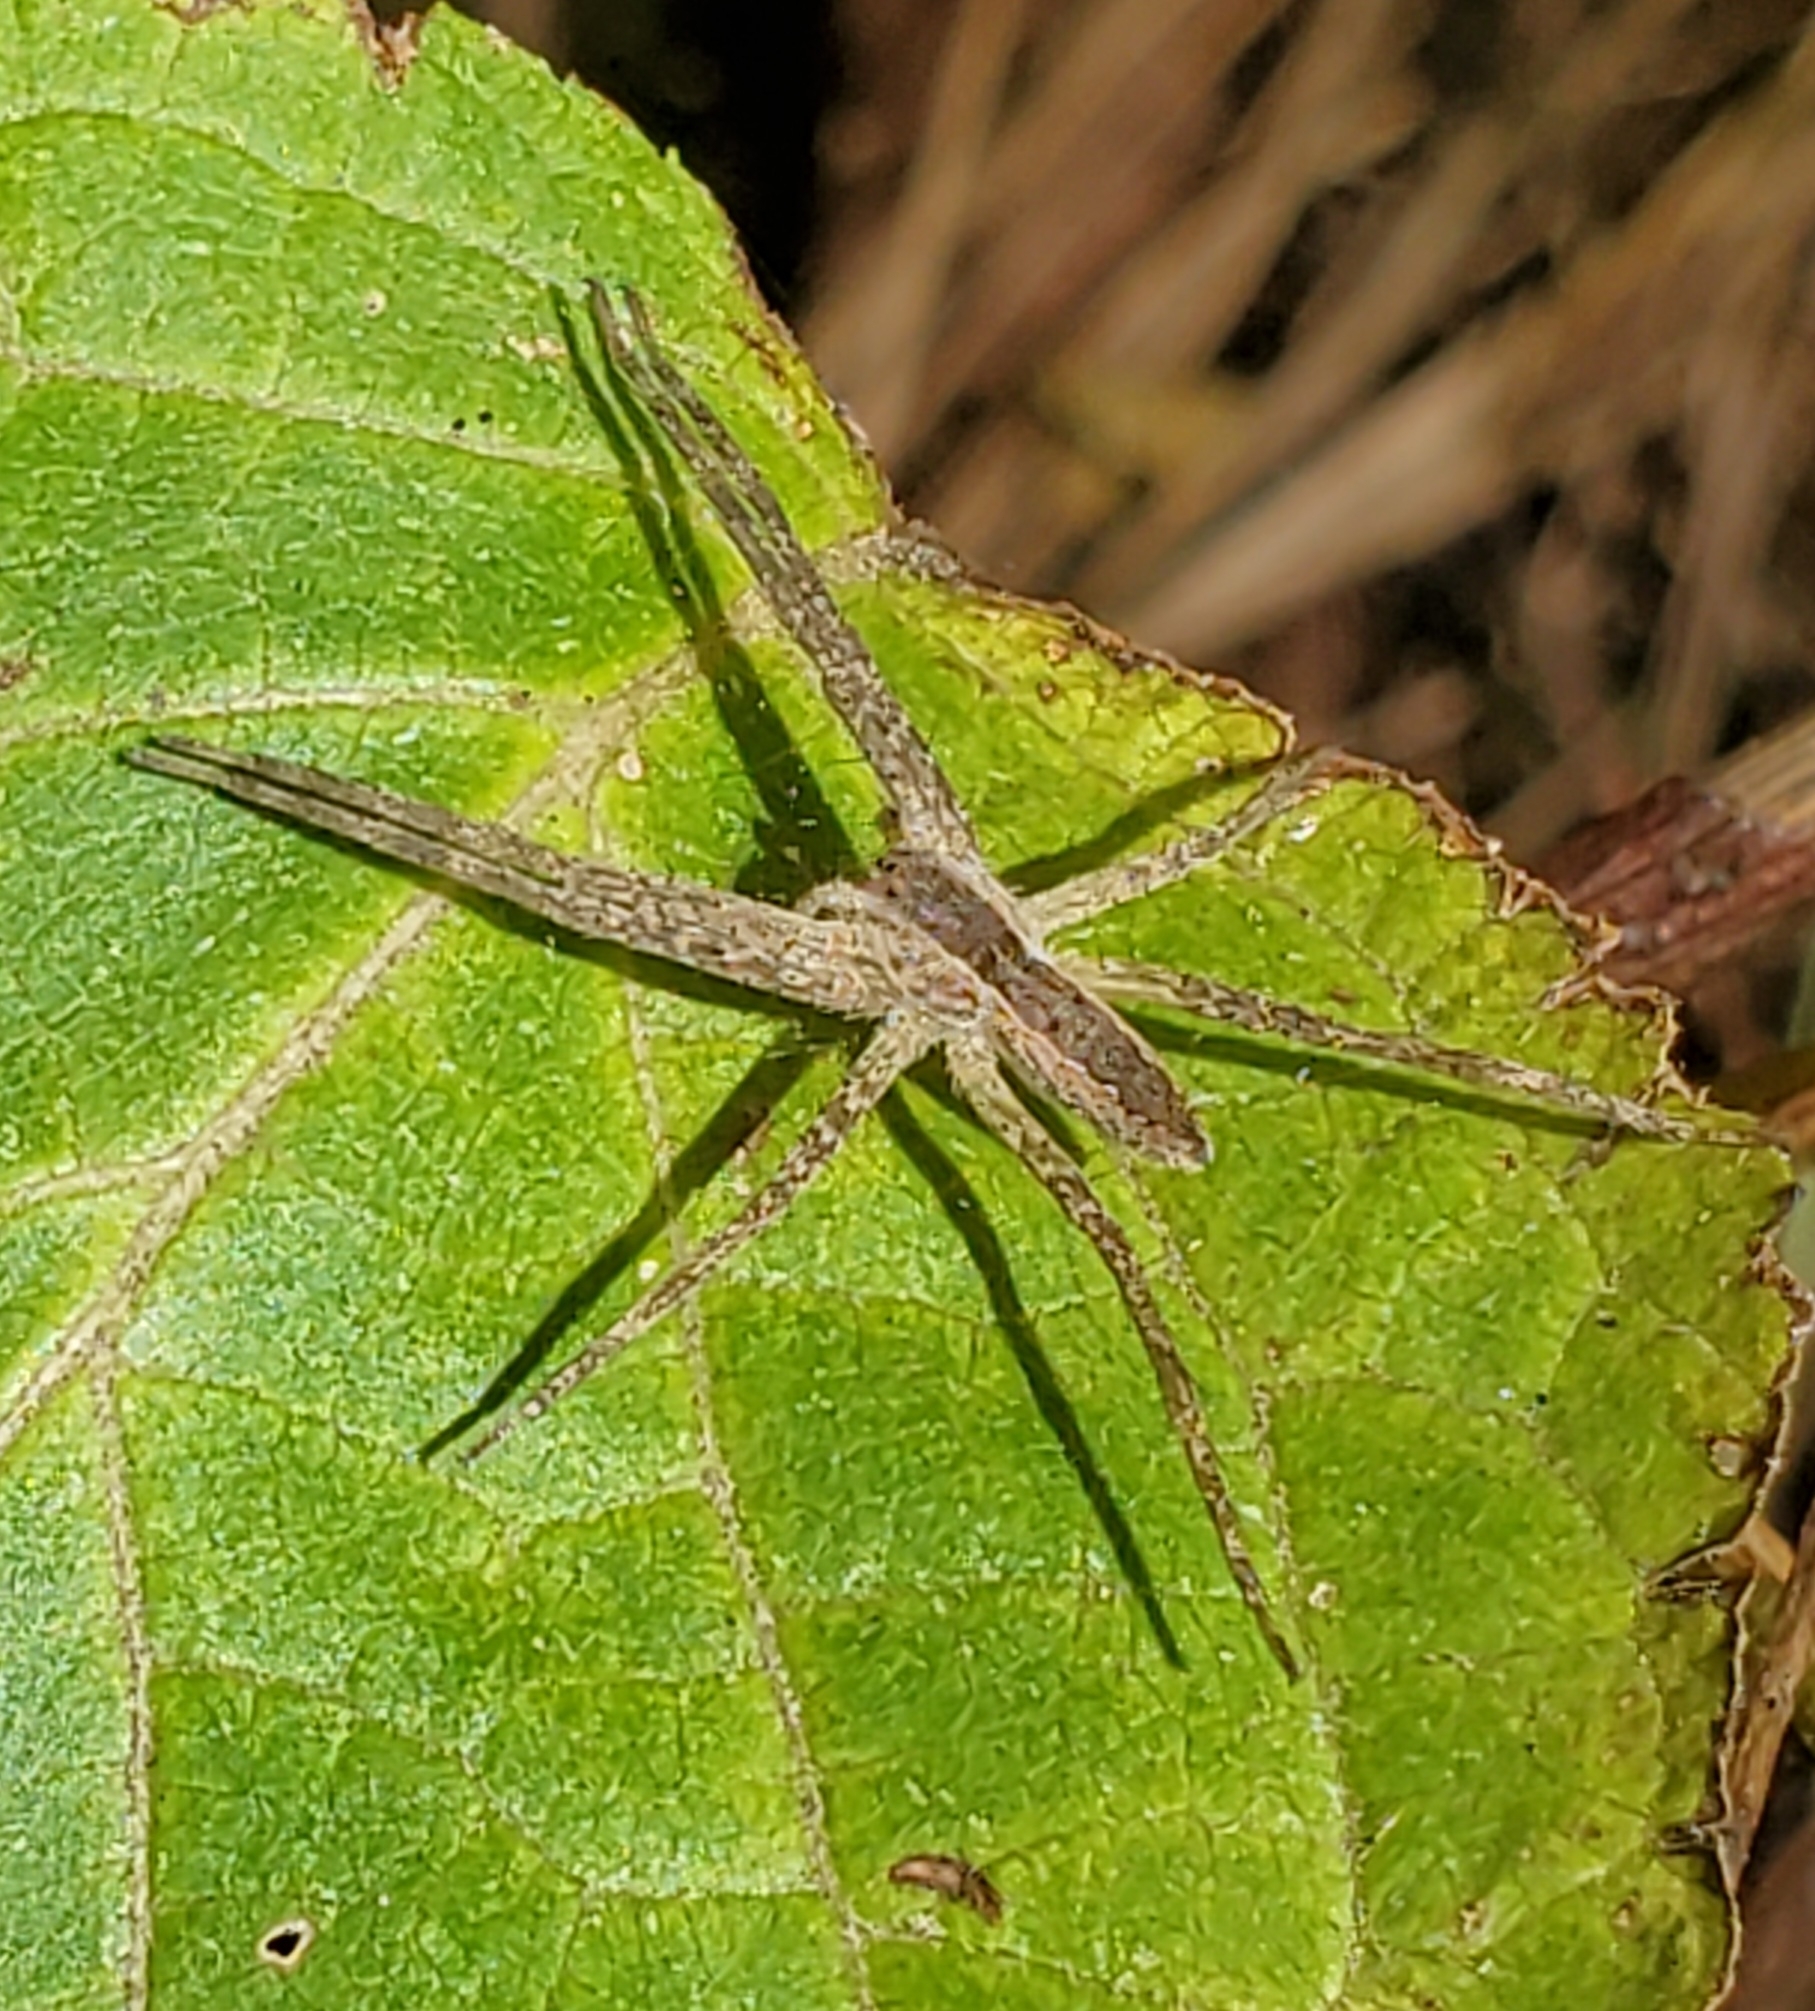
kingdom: Animalia
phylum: Arthropoda
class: Arachnida
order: Araneae
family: Pisauridae
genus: Pisaurina
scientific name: Pisaurina mira
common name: American nursery web spider
